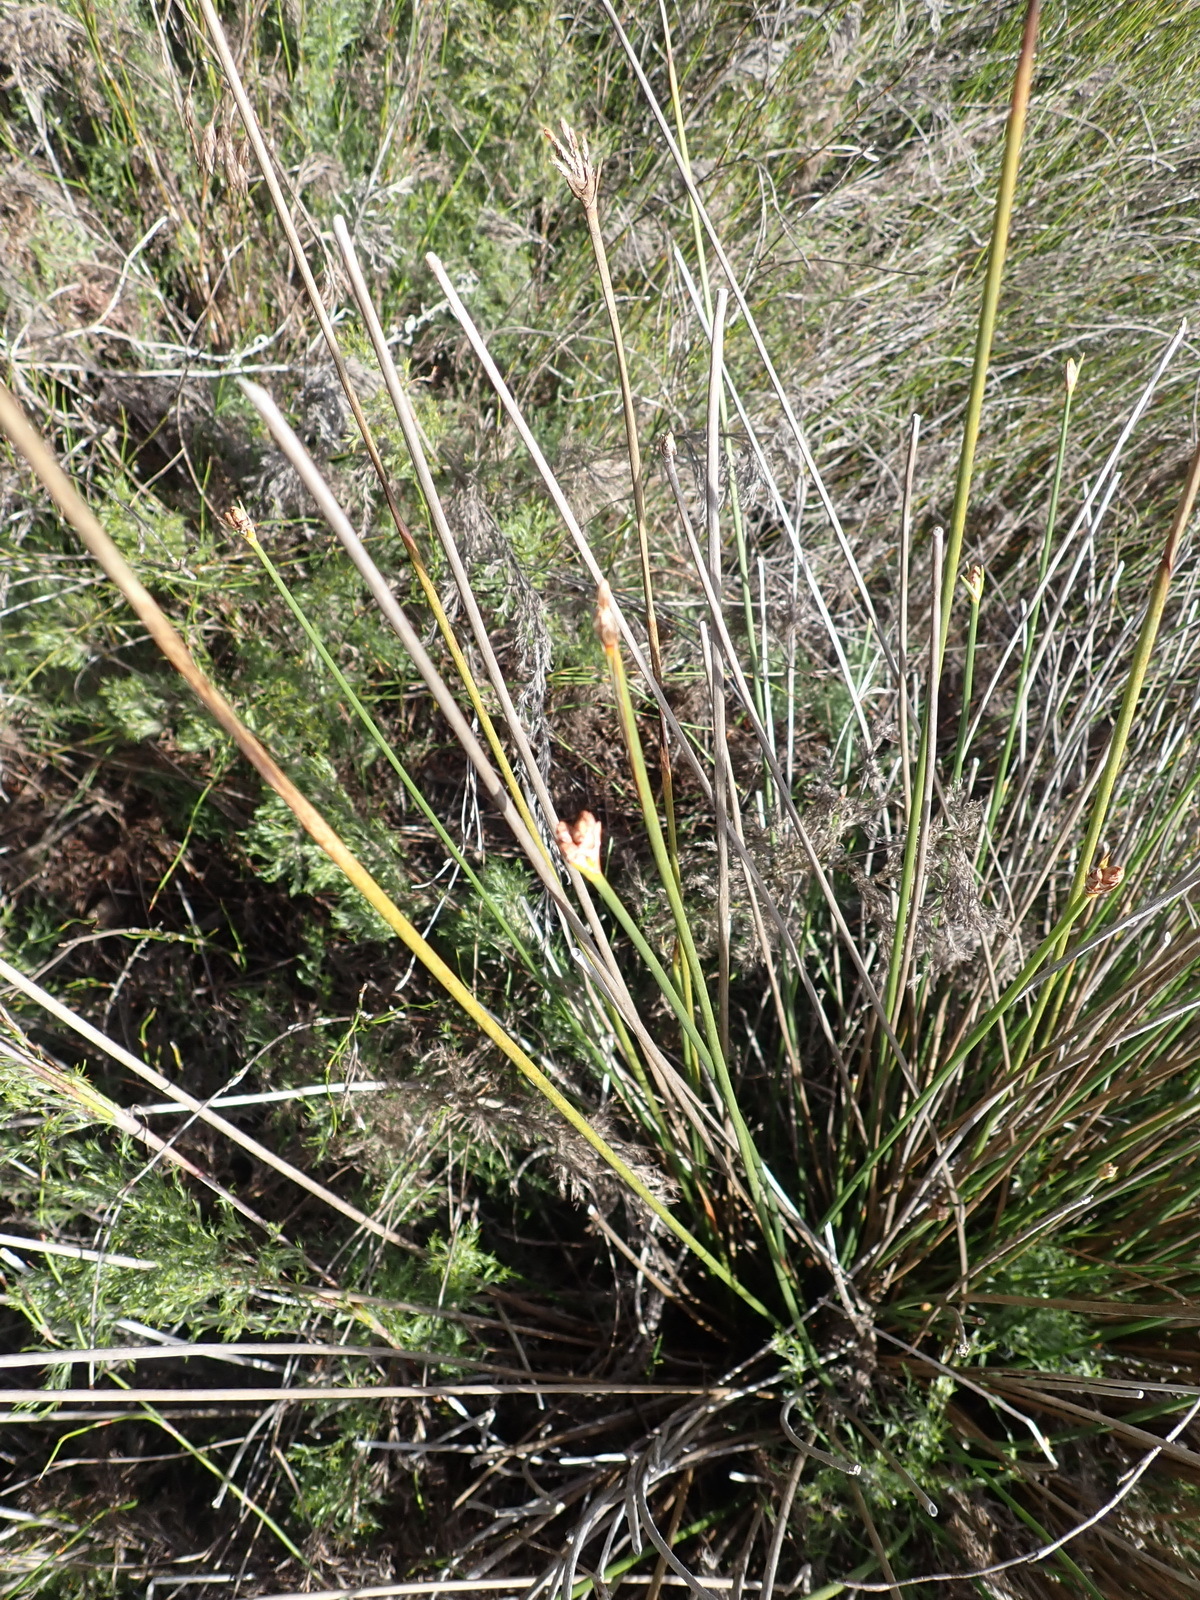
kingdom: Plantae
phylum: Tracheophyta
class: Liliopsida
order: Poales
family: Cyperaceae
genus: Hellmuthia
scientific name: Hellmuthia membranacea
